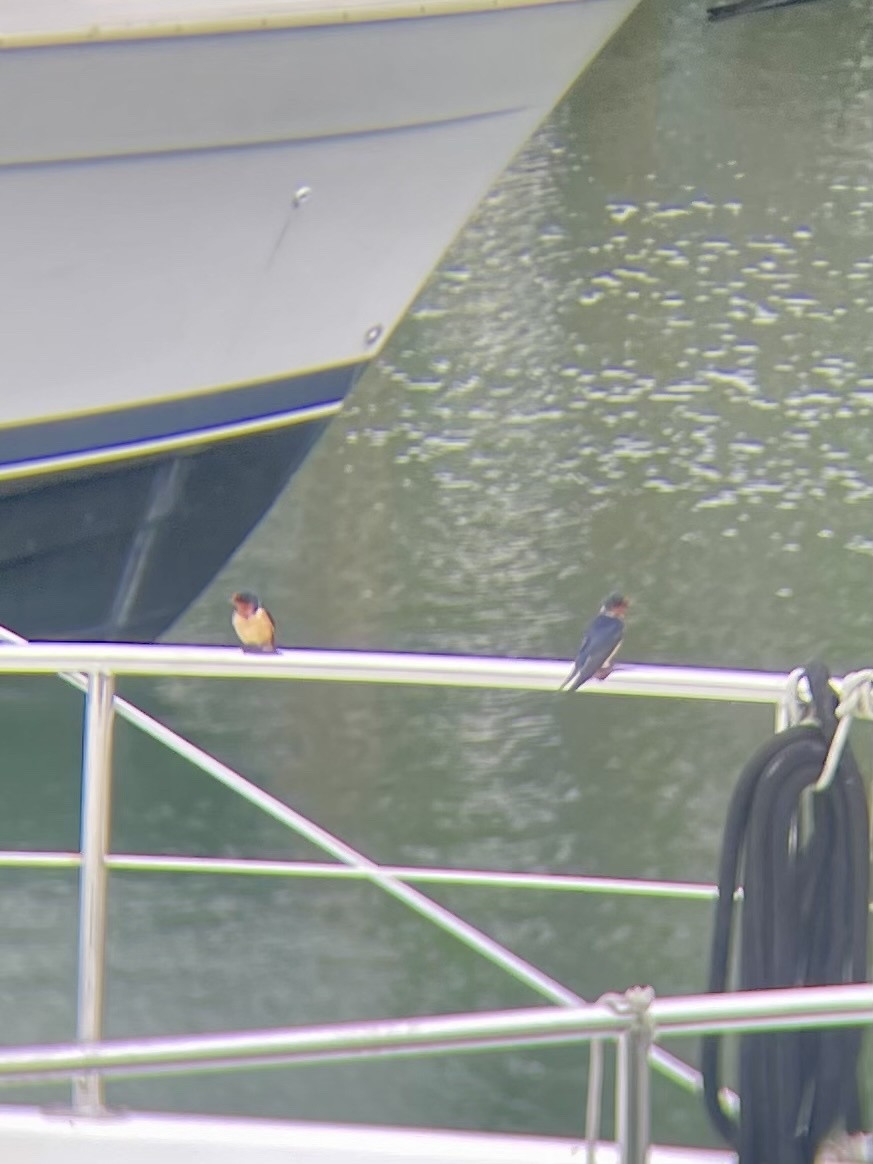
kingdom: Animalia
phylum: Chordata
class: Aves
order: Passeriformes
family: Hirundinidae
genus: Hirundo
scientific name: Hirundo rustica
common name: Barn swallow
